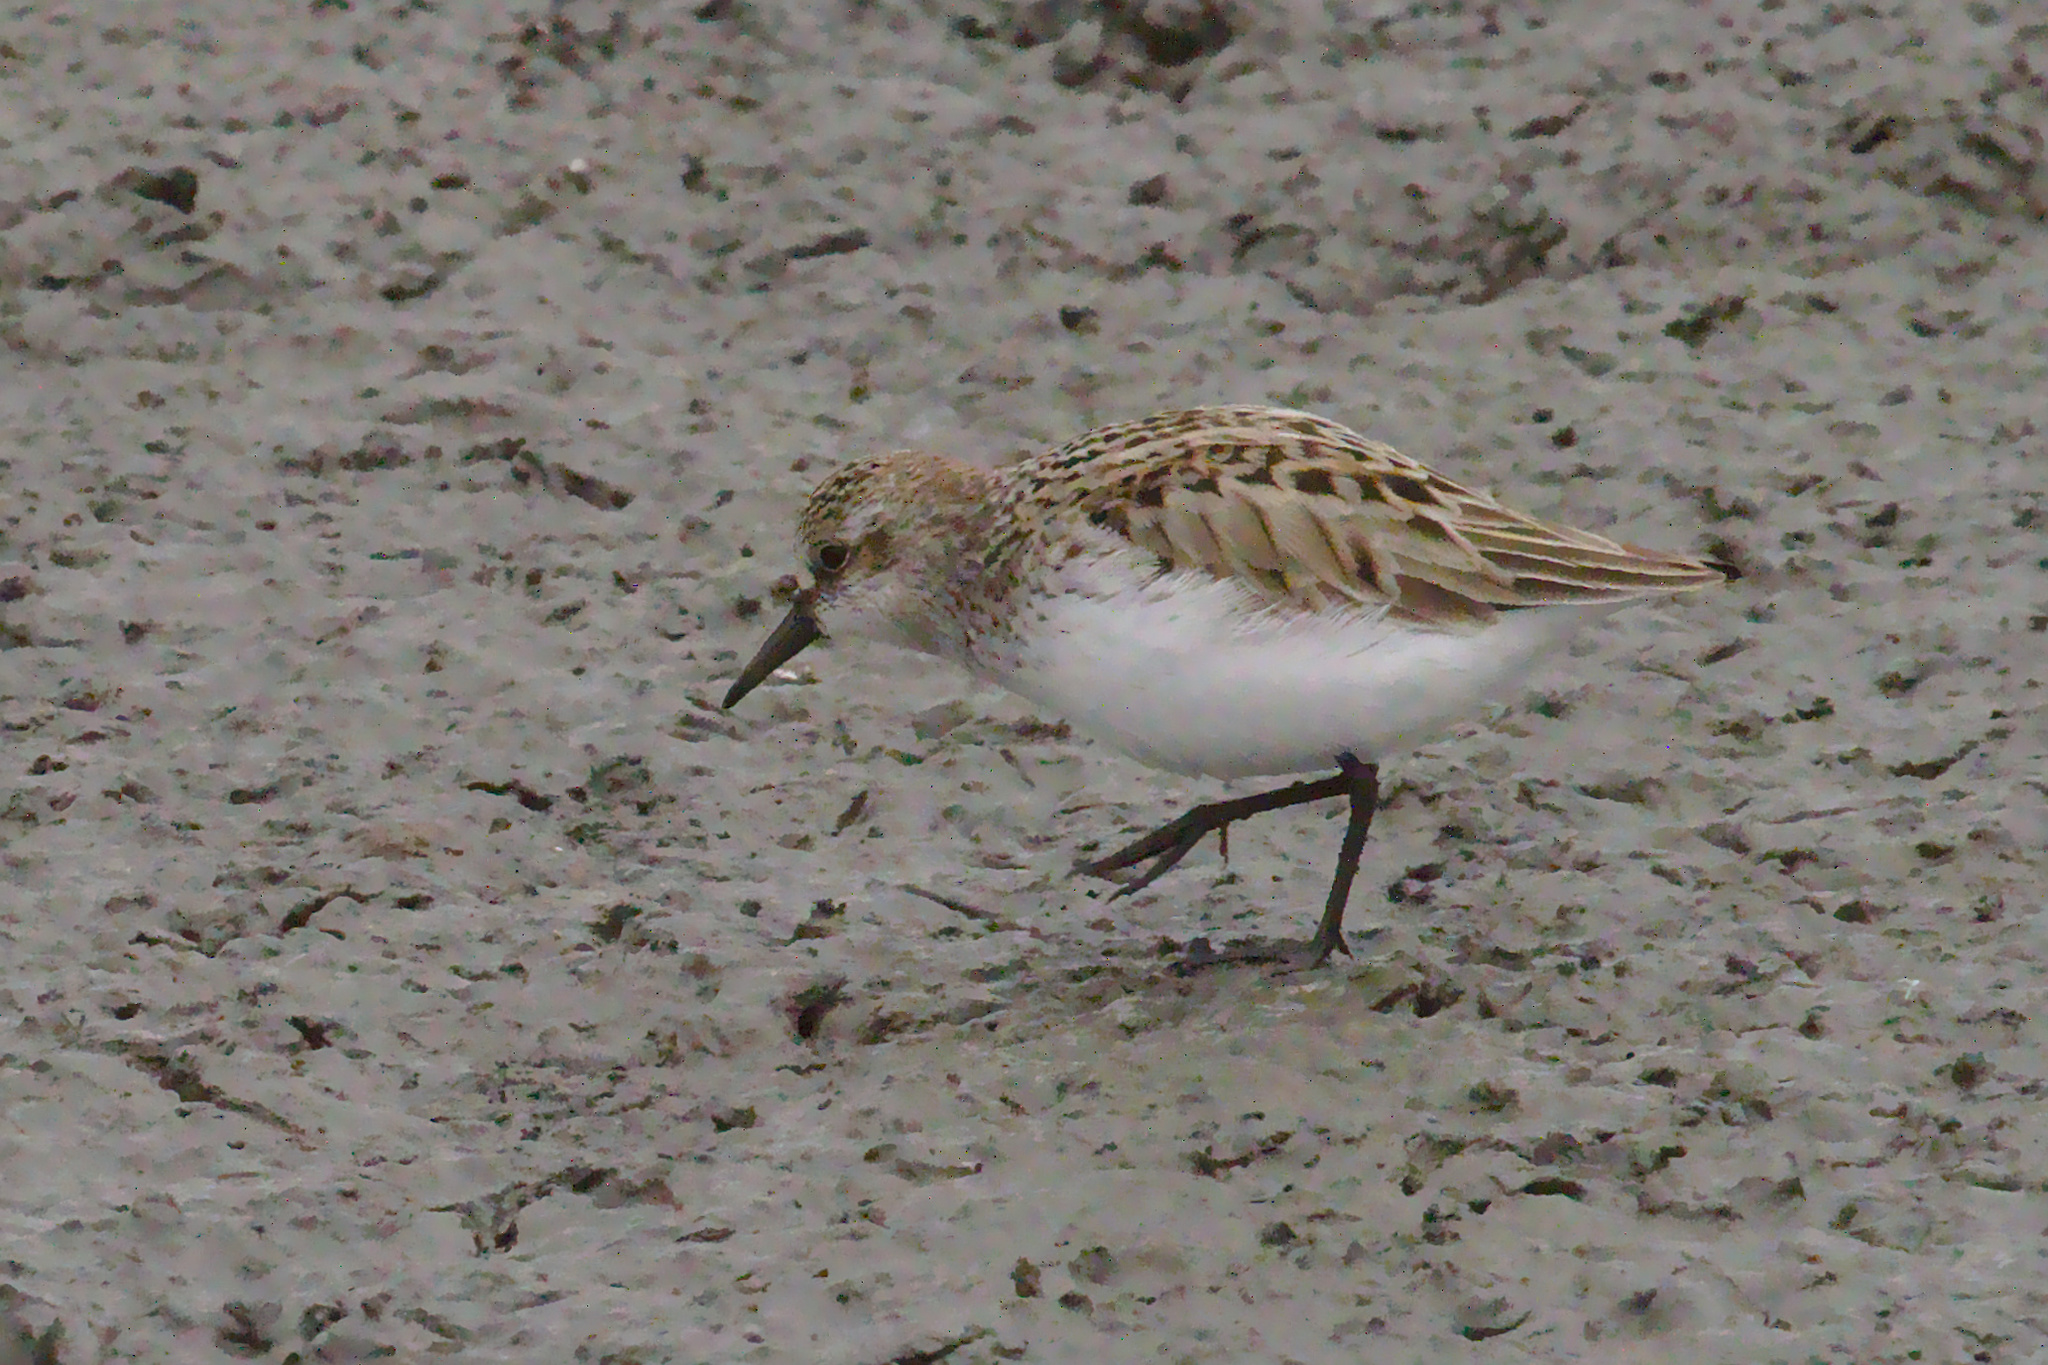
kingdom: Animalia
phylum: Chordata
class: Aves
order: Charadriiformes
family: Scolopacidae
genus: Calidris
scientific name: Calidris pusilla
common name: Semipalmated sandpiper
